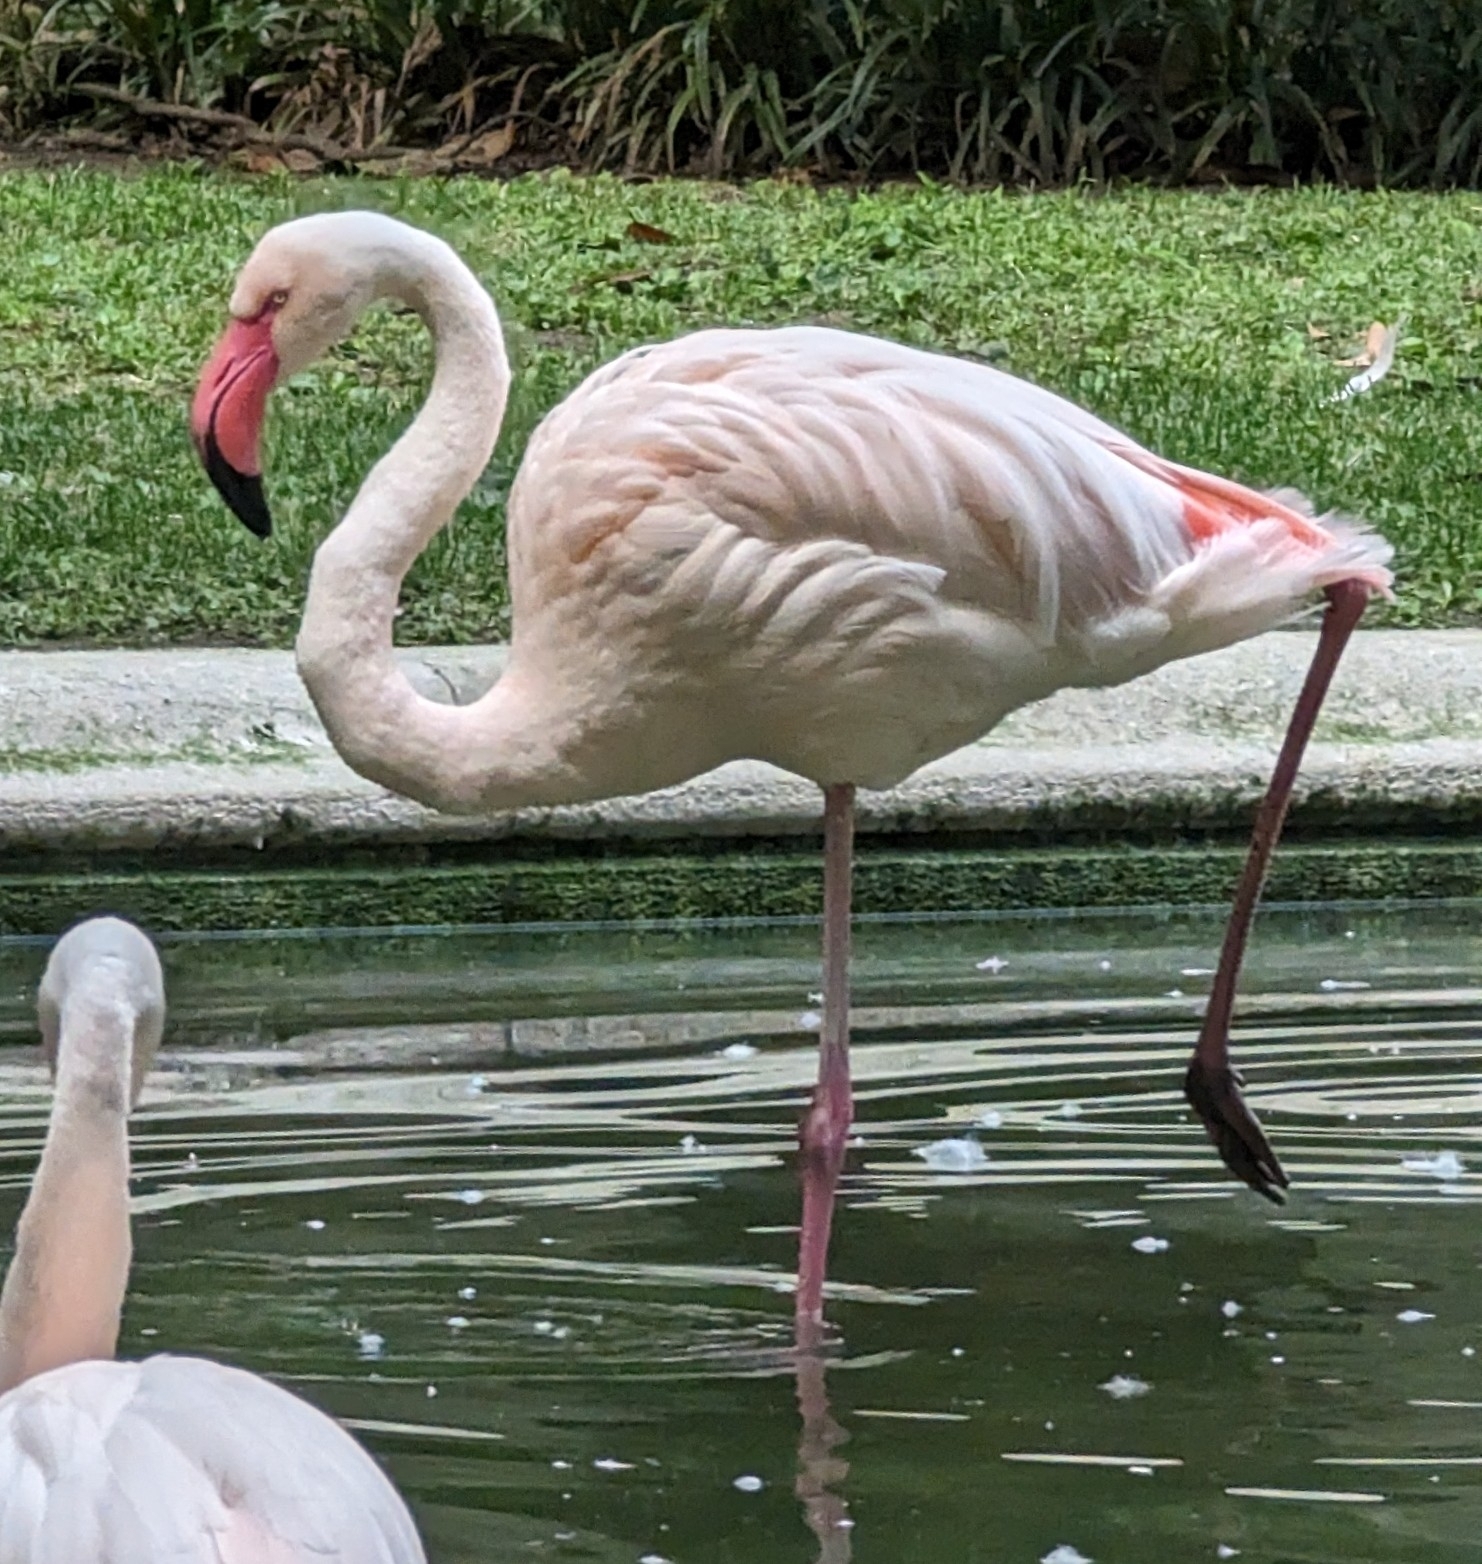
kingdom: Animalia
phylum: Chordata
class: Aves
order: Phoenicopteriformes
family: Phoenicopteridae
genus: Phoenicopterus
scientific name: Phoenicopterus roseus
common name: Greater flamingo
